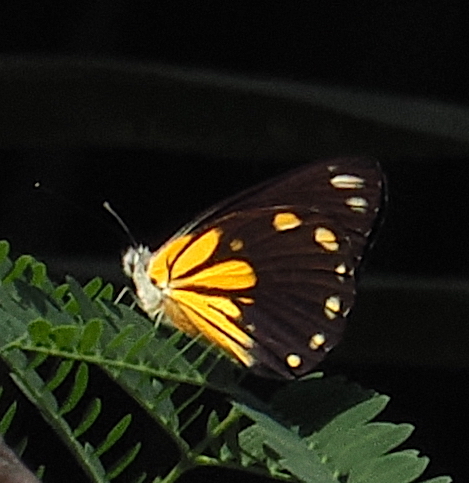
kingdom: Animalia
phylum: Arthropoda
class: Insecta
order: Lepidoptera
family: Pieridae
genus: Belenois
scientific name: Belenois java
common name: Caper white
